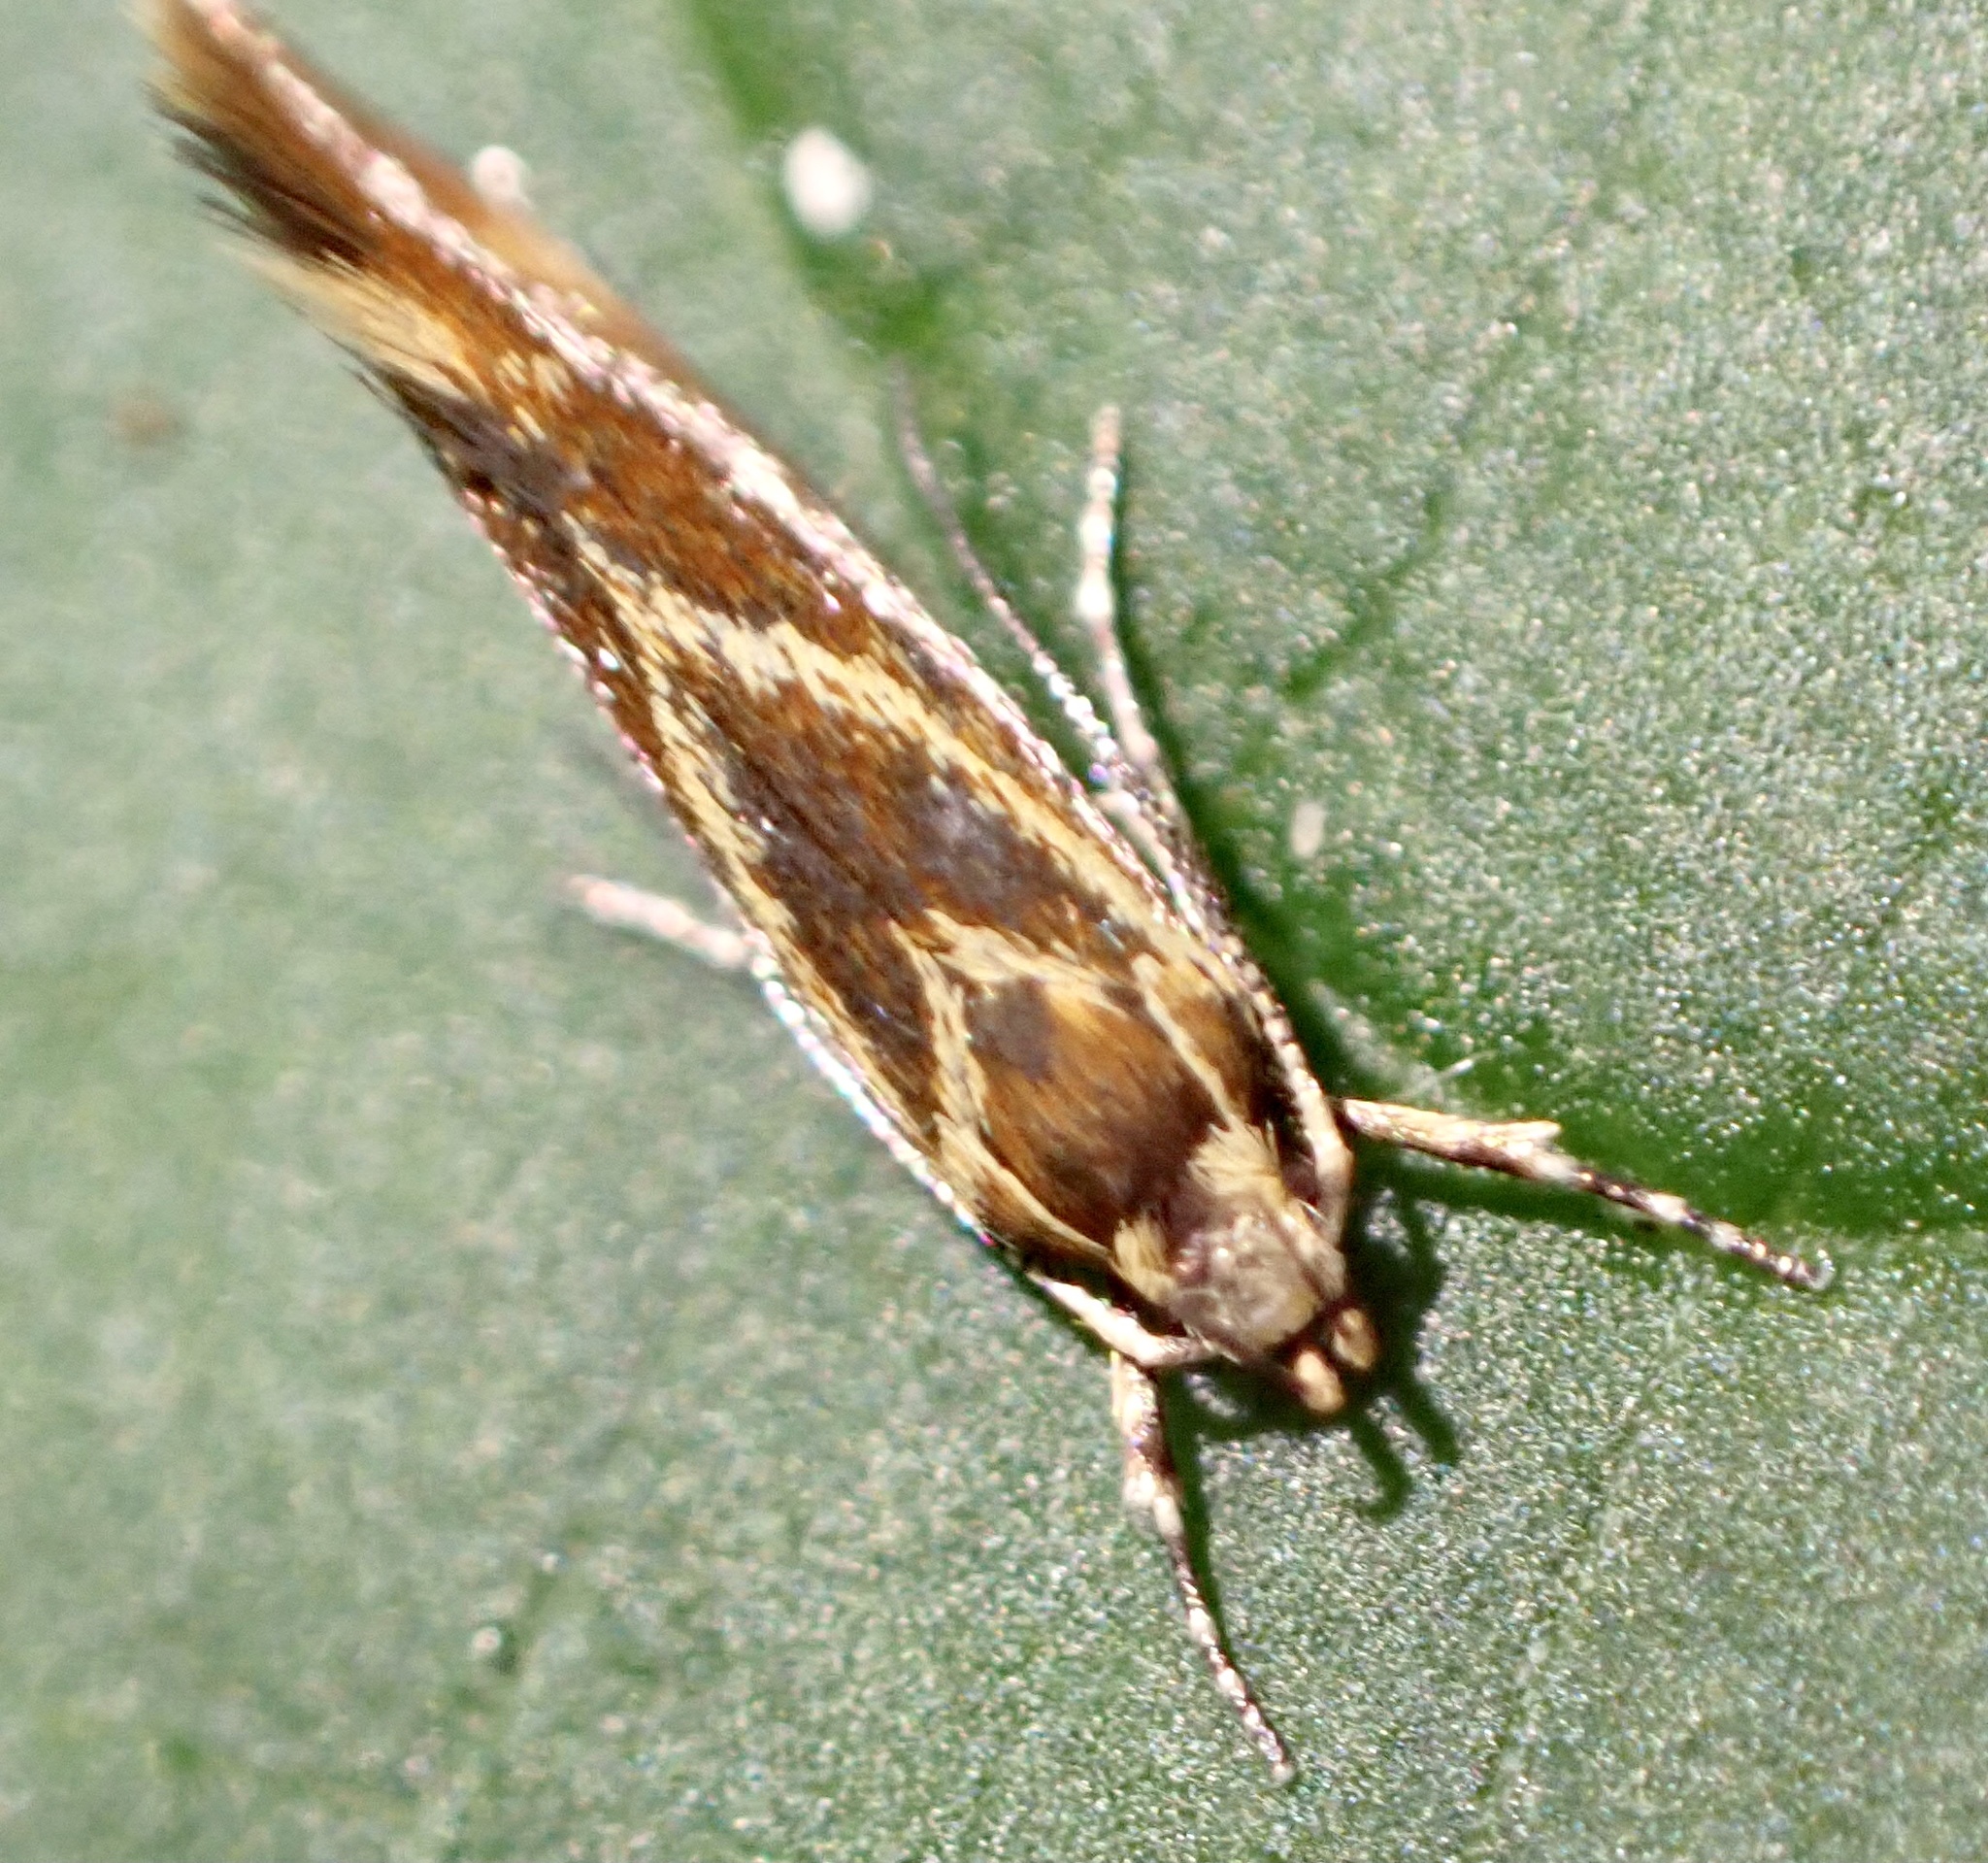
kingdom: Animalia
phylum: Arthropoda
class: Insecta
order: Lepidoptera
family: Oecophoridae
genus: Borkhausenia
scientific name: Borkhausenia italica
